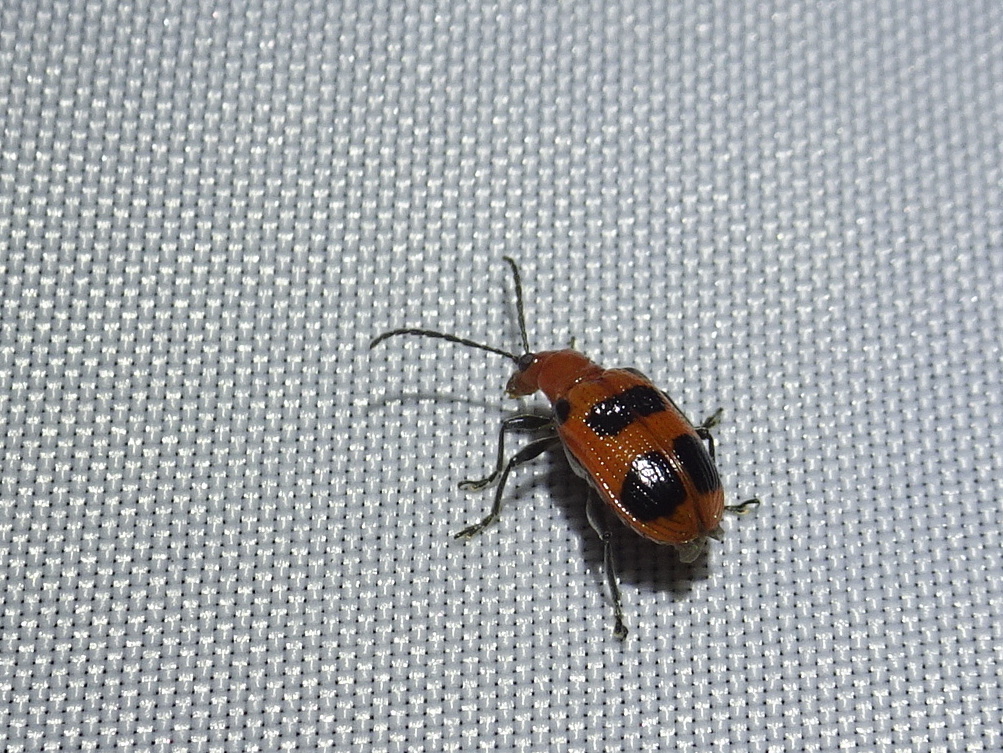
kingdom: Animalia
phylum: Arthropoda
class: Insecta
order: Coleoptera
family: Chrysomelidae
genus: Neolema
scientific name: Neolema sexpunctata
